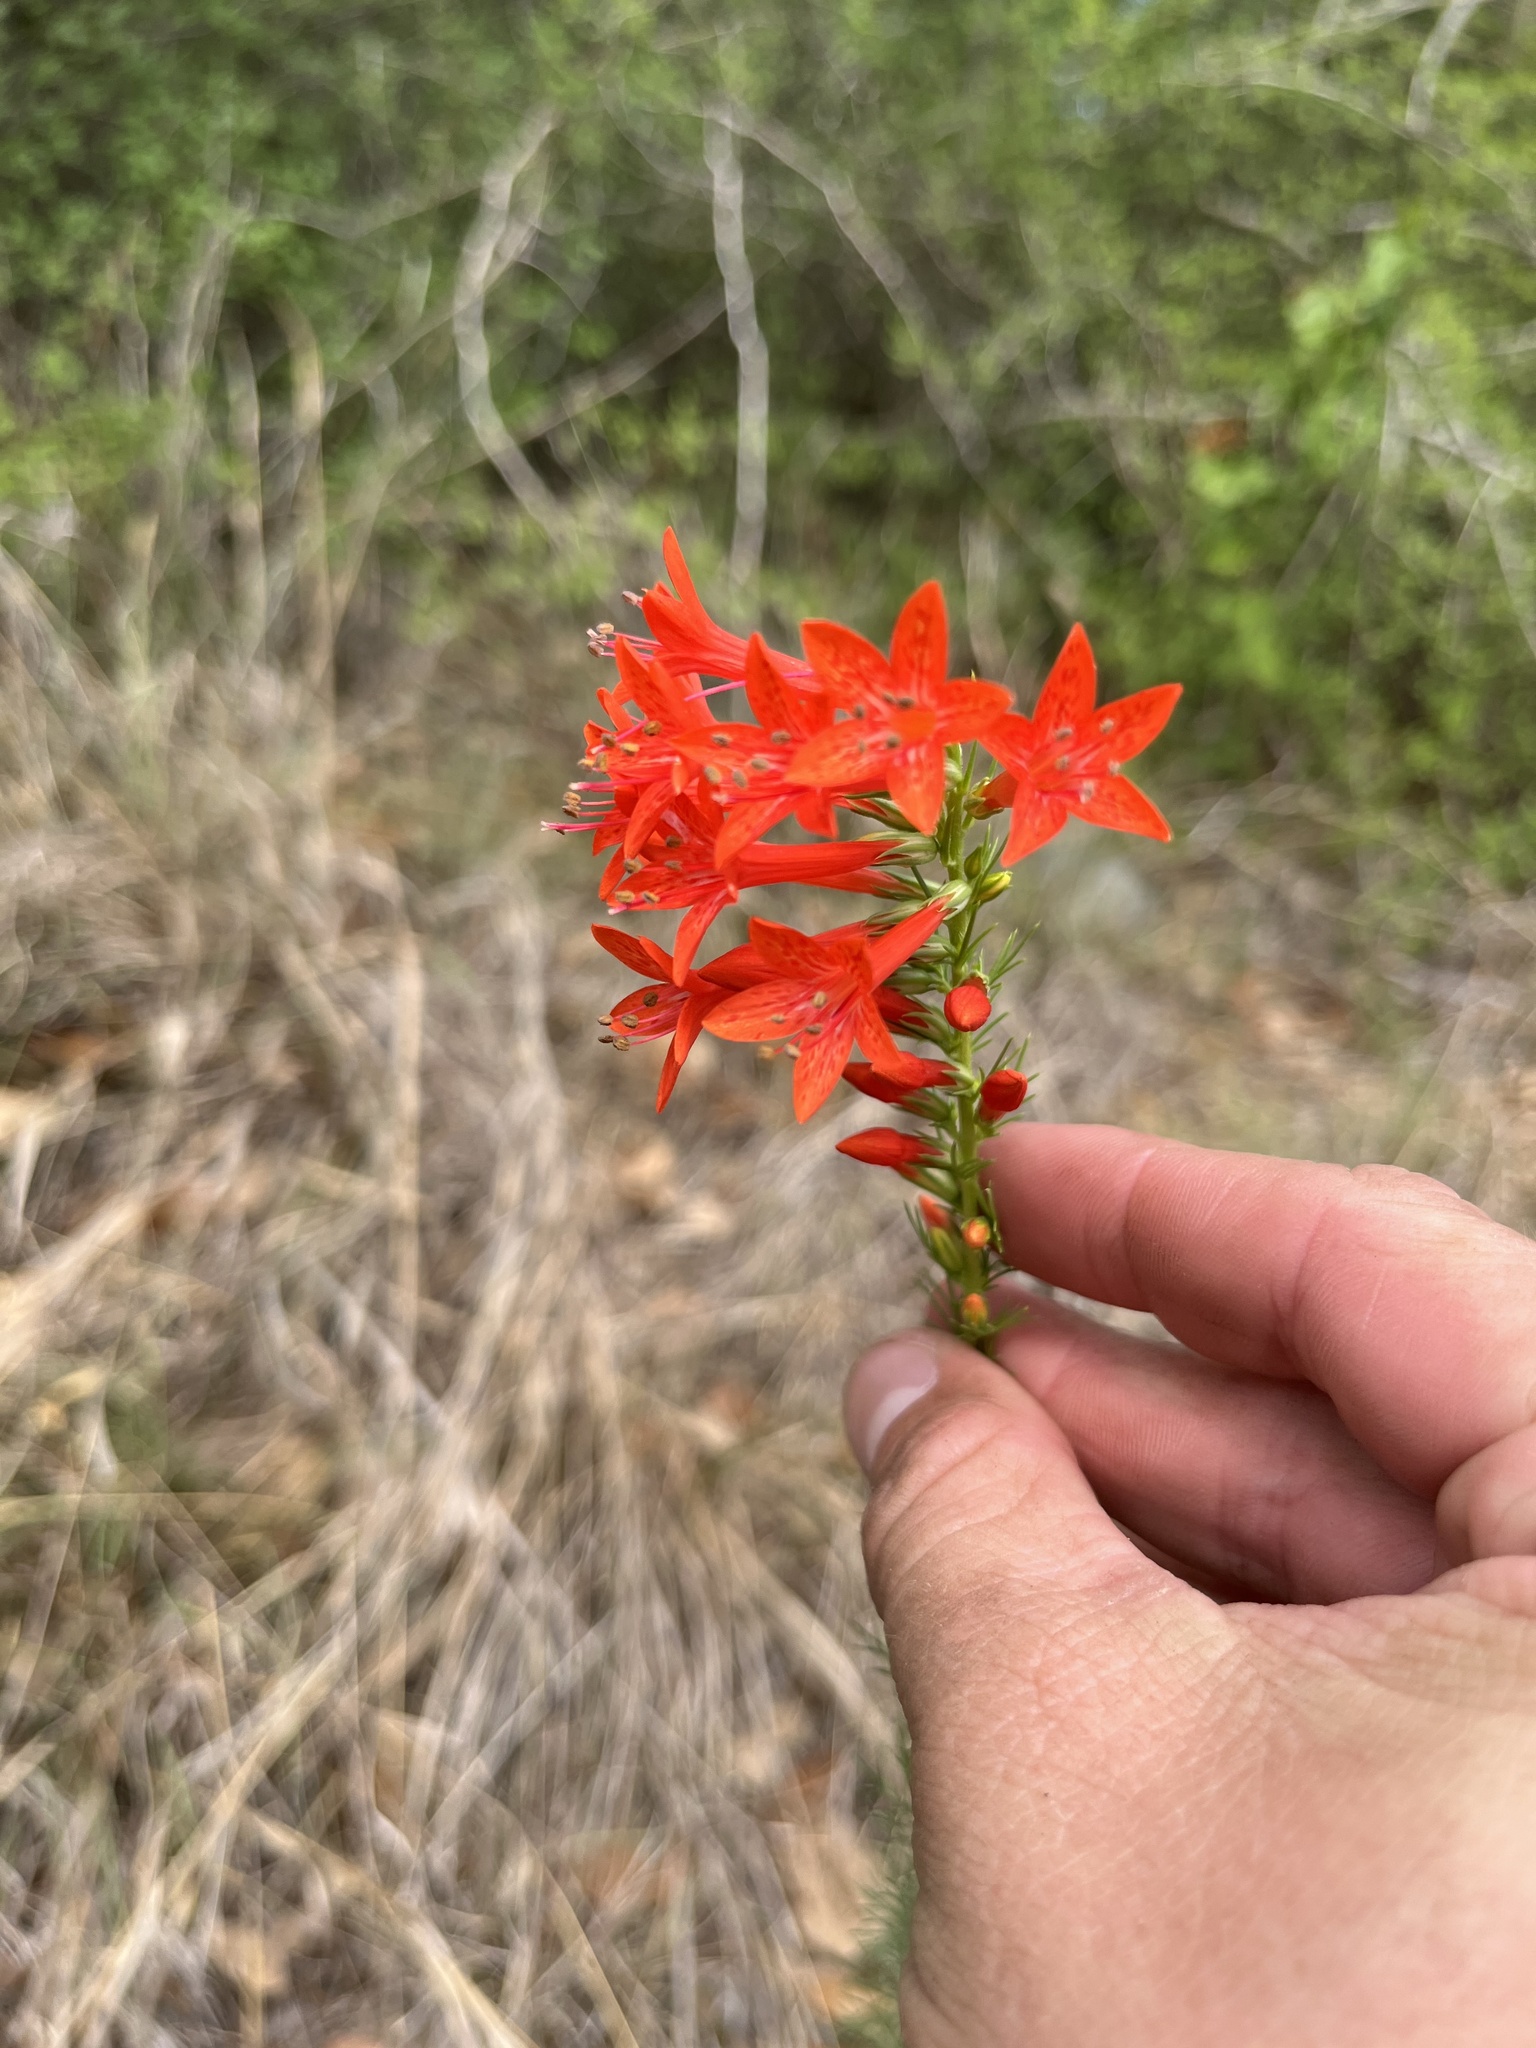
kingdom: Plantae
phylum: Tracheophyta
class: Magnoliopsida
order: Ericales
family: Polemoniaceae
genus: Ipomopsis
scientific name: Ipomopsis rubra
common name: Skyrocket
